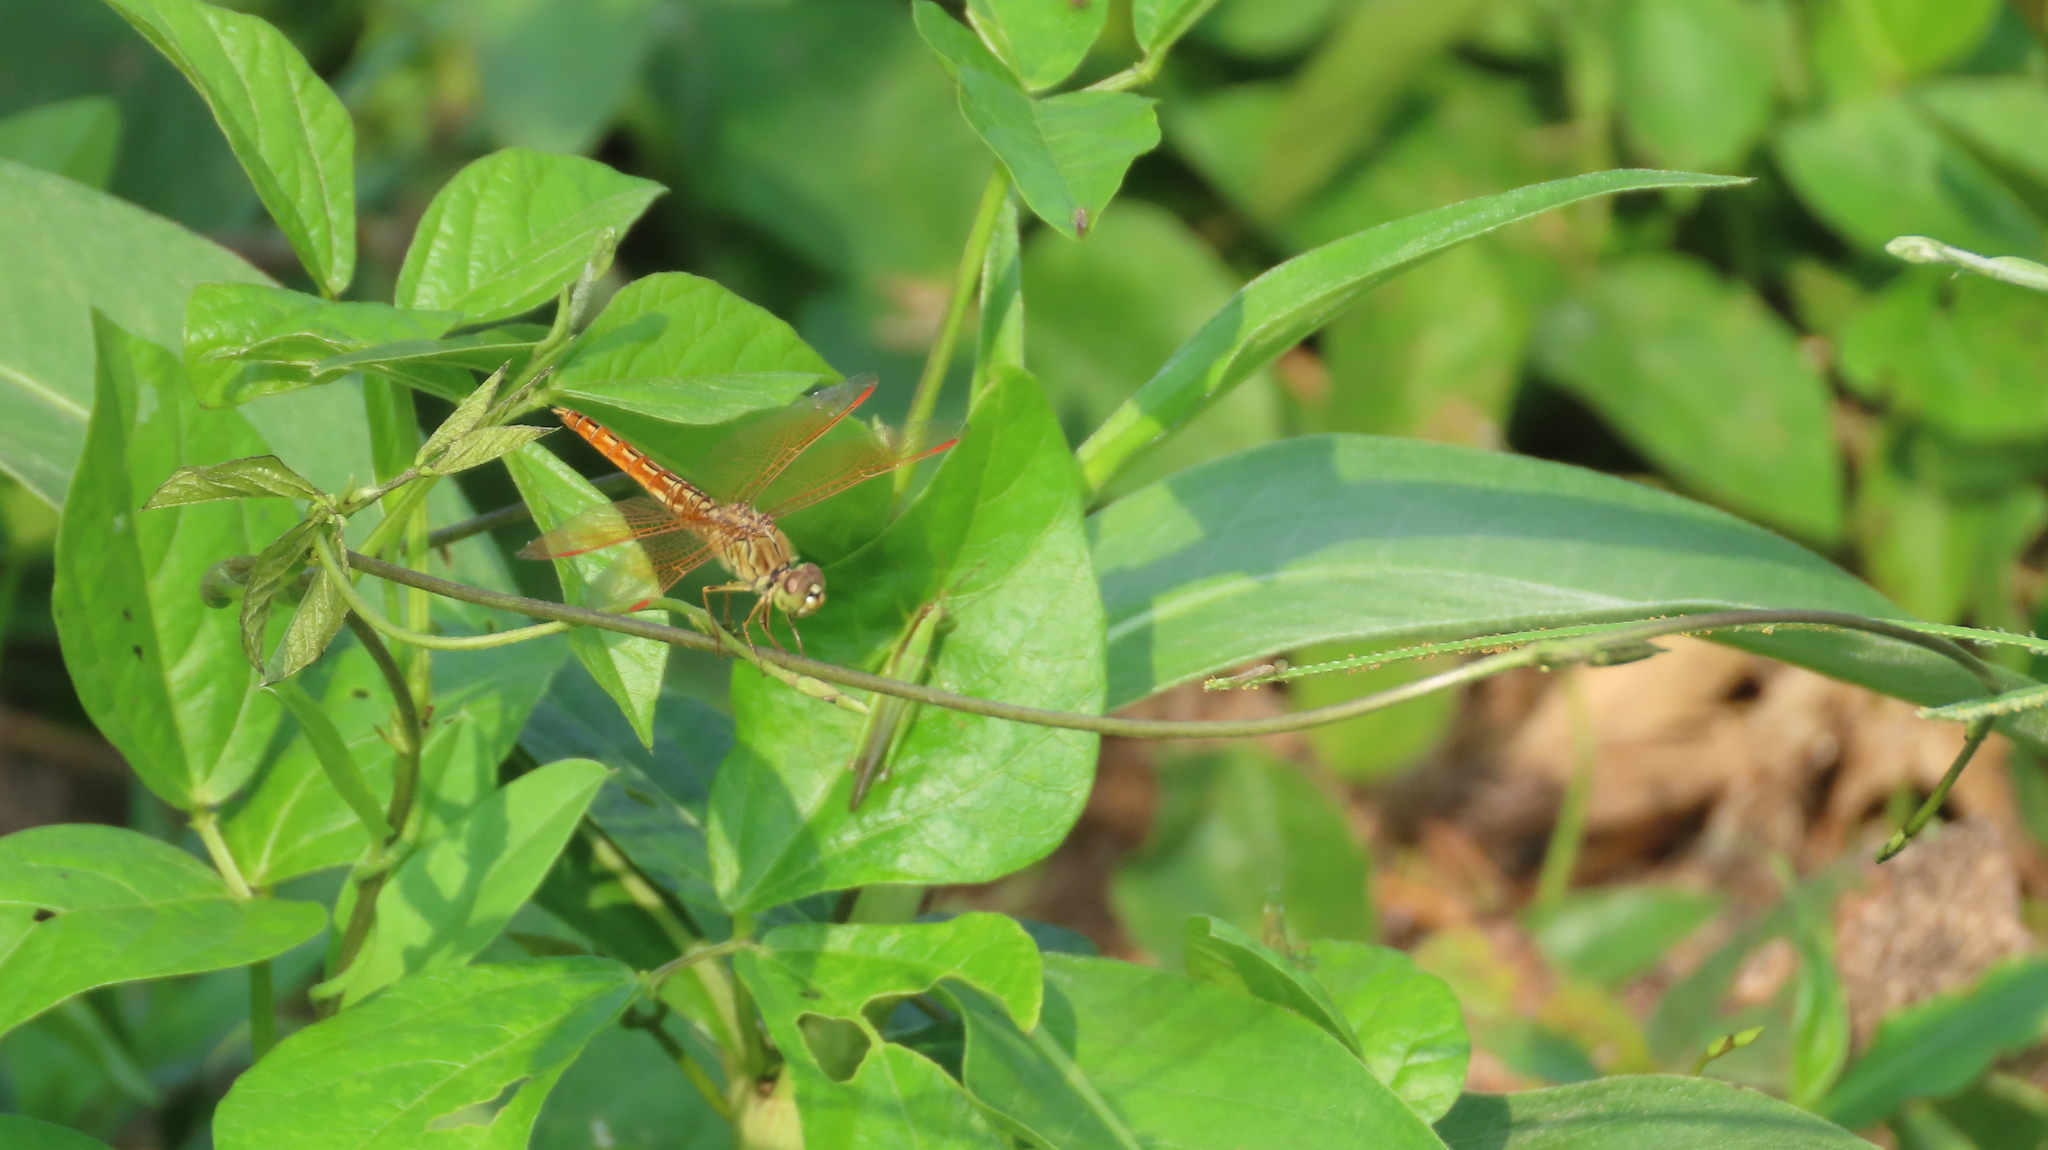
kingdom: Animalia
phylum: Arthropoda
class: Insecta
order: Odonata
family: Libellulidae
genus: Brachythemis
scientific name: Brachythemis contaminata
